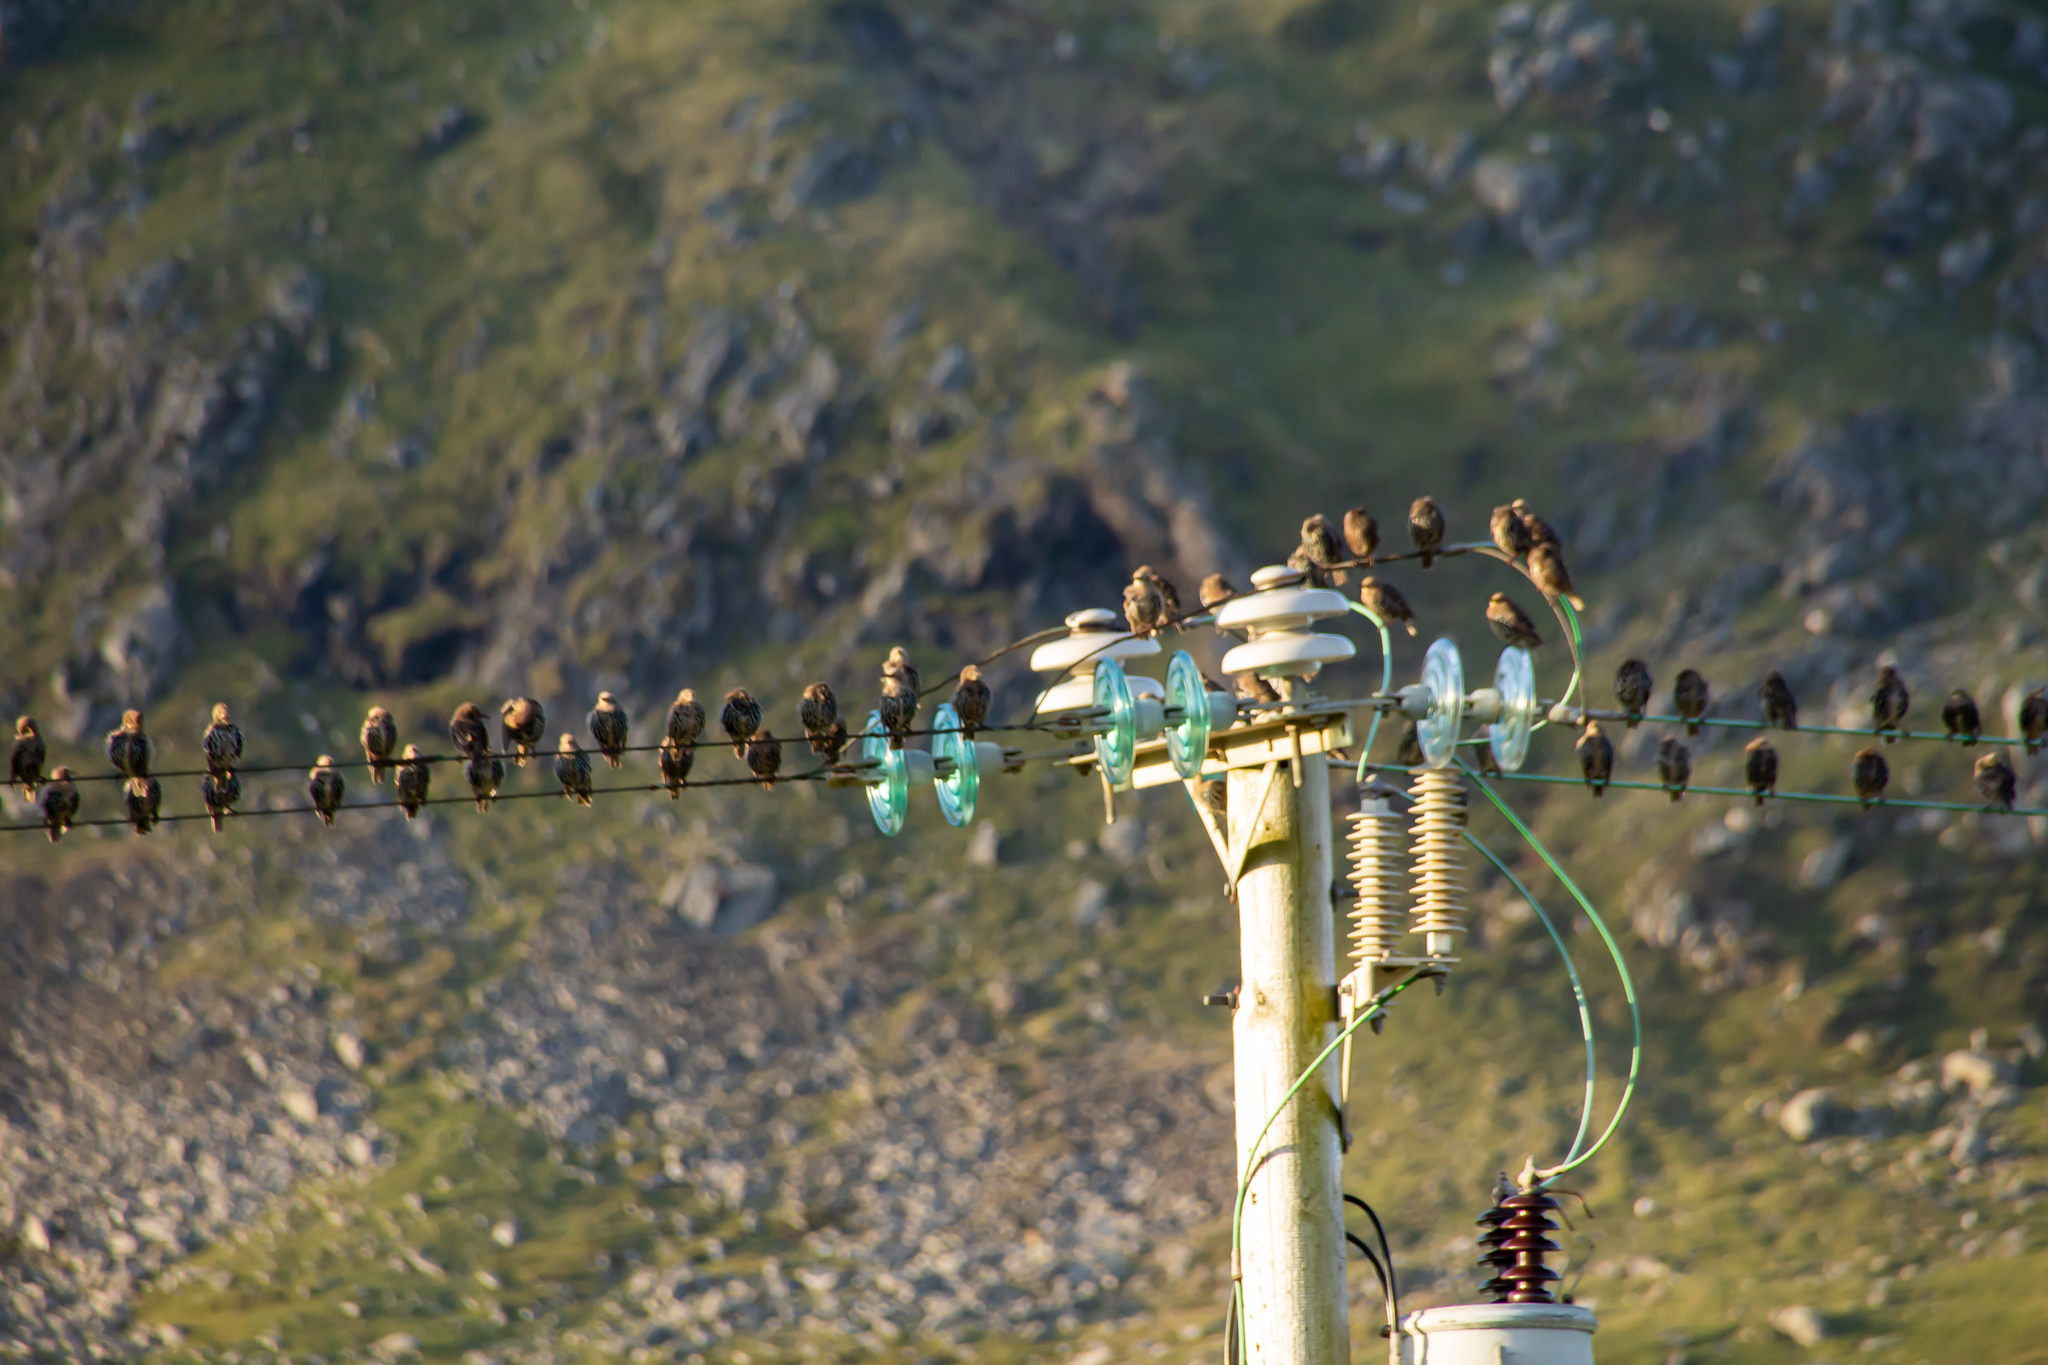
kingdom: Animalia
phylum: Chordata
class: Aves
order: Passeriformes
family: Sturnidae
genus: Sturnus
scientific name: Sturnus vulgaris
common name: Common starling
